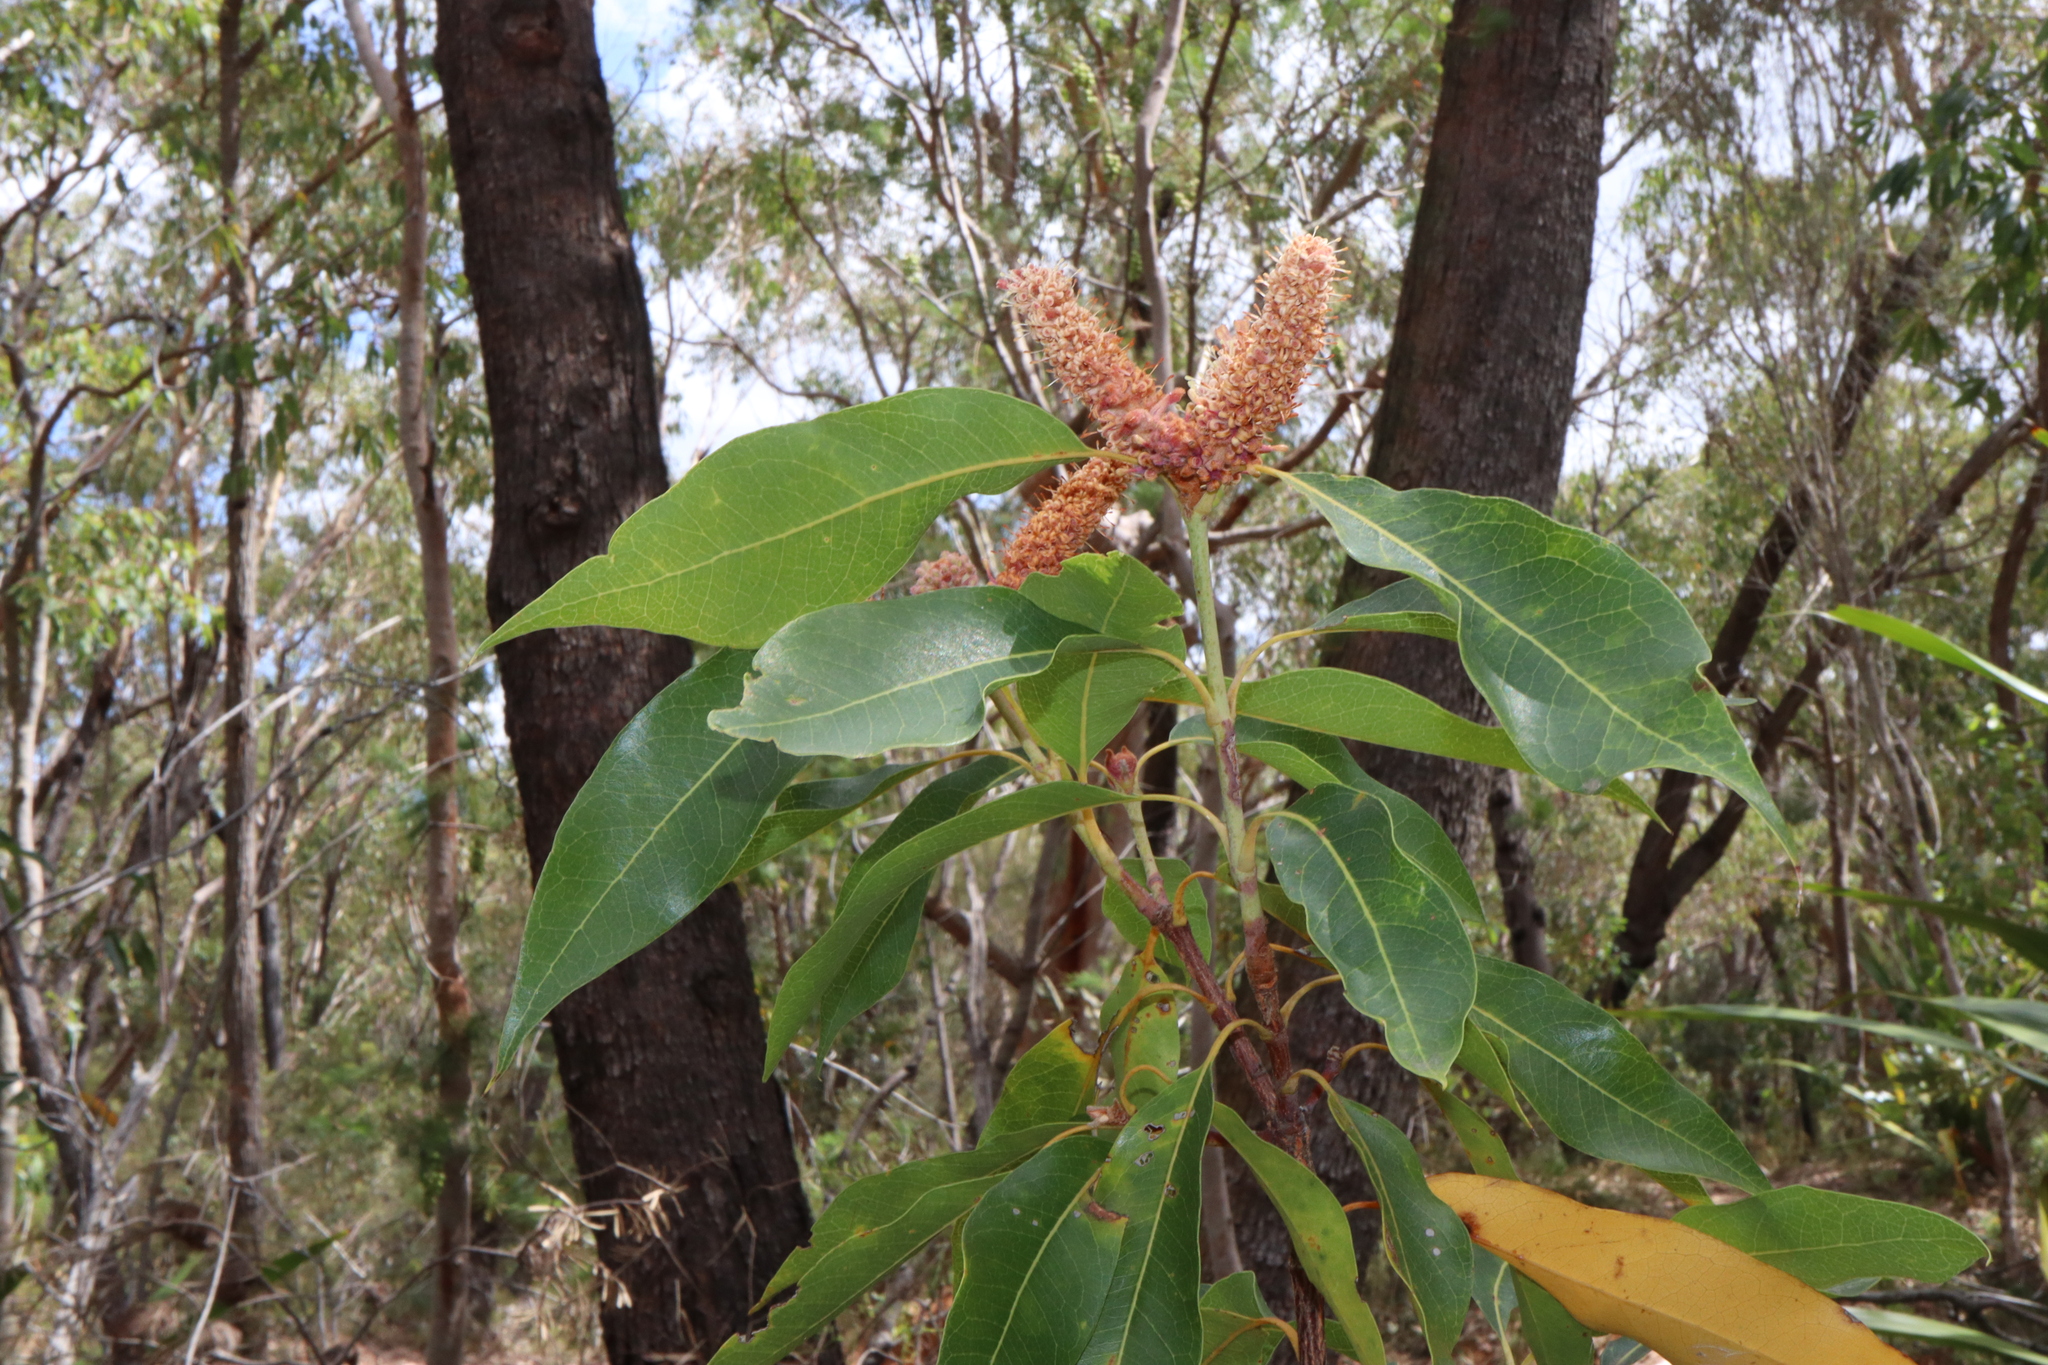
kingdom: Plantae
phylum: Tracheophyta
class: Magnoliopsida
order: Proteales
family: Proteaceae
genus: Xylomelum
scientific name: Xylomelum pyriforme
